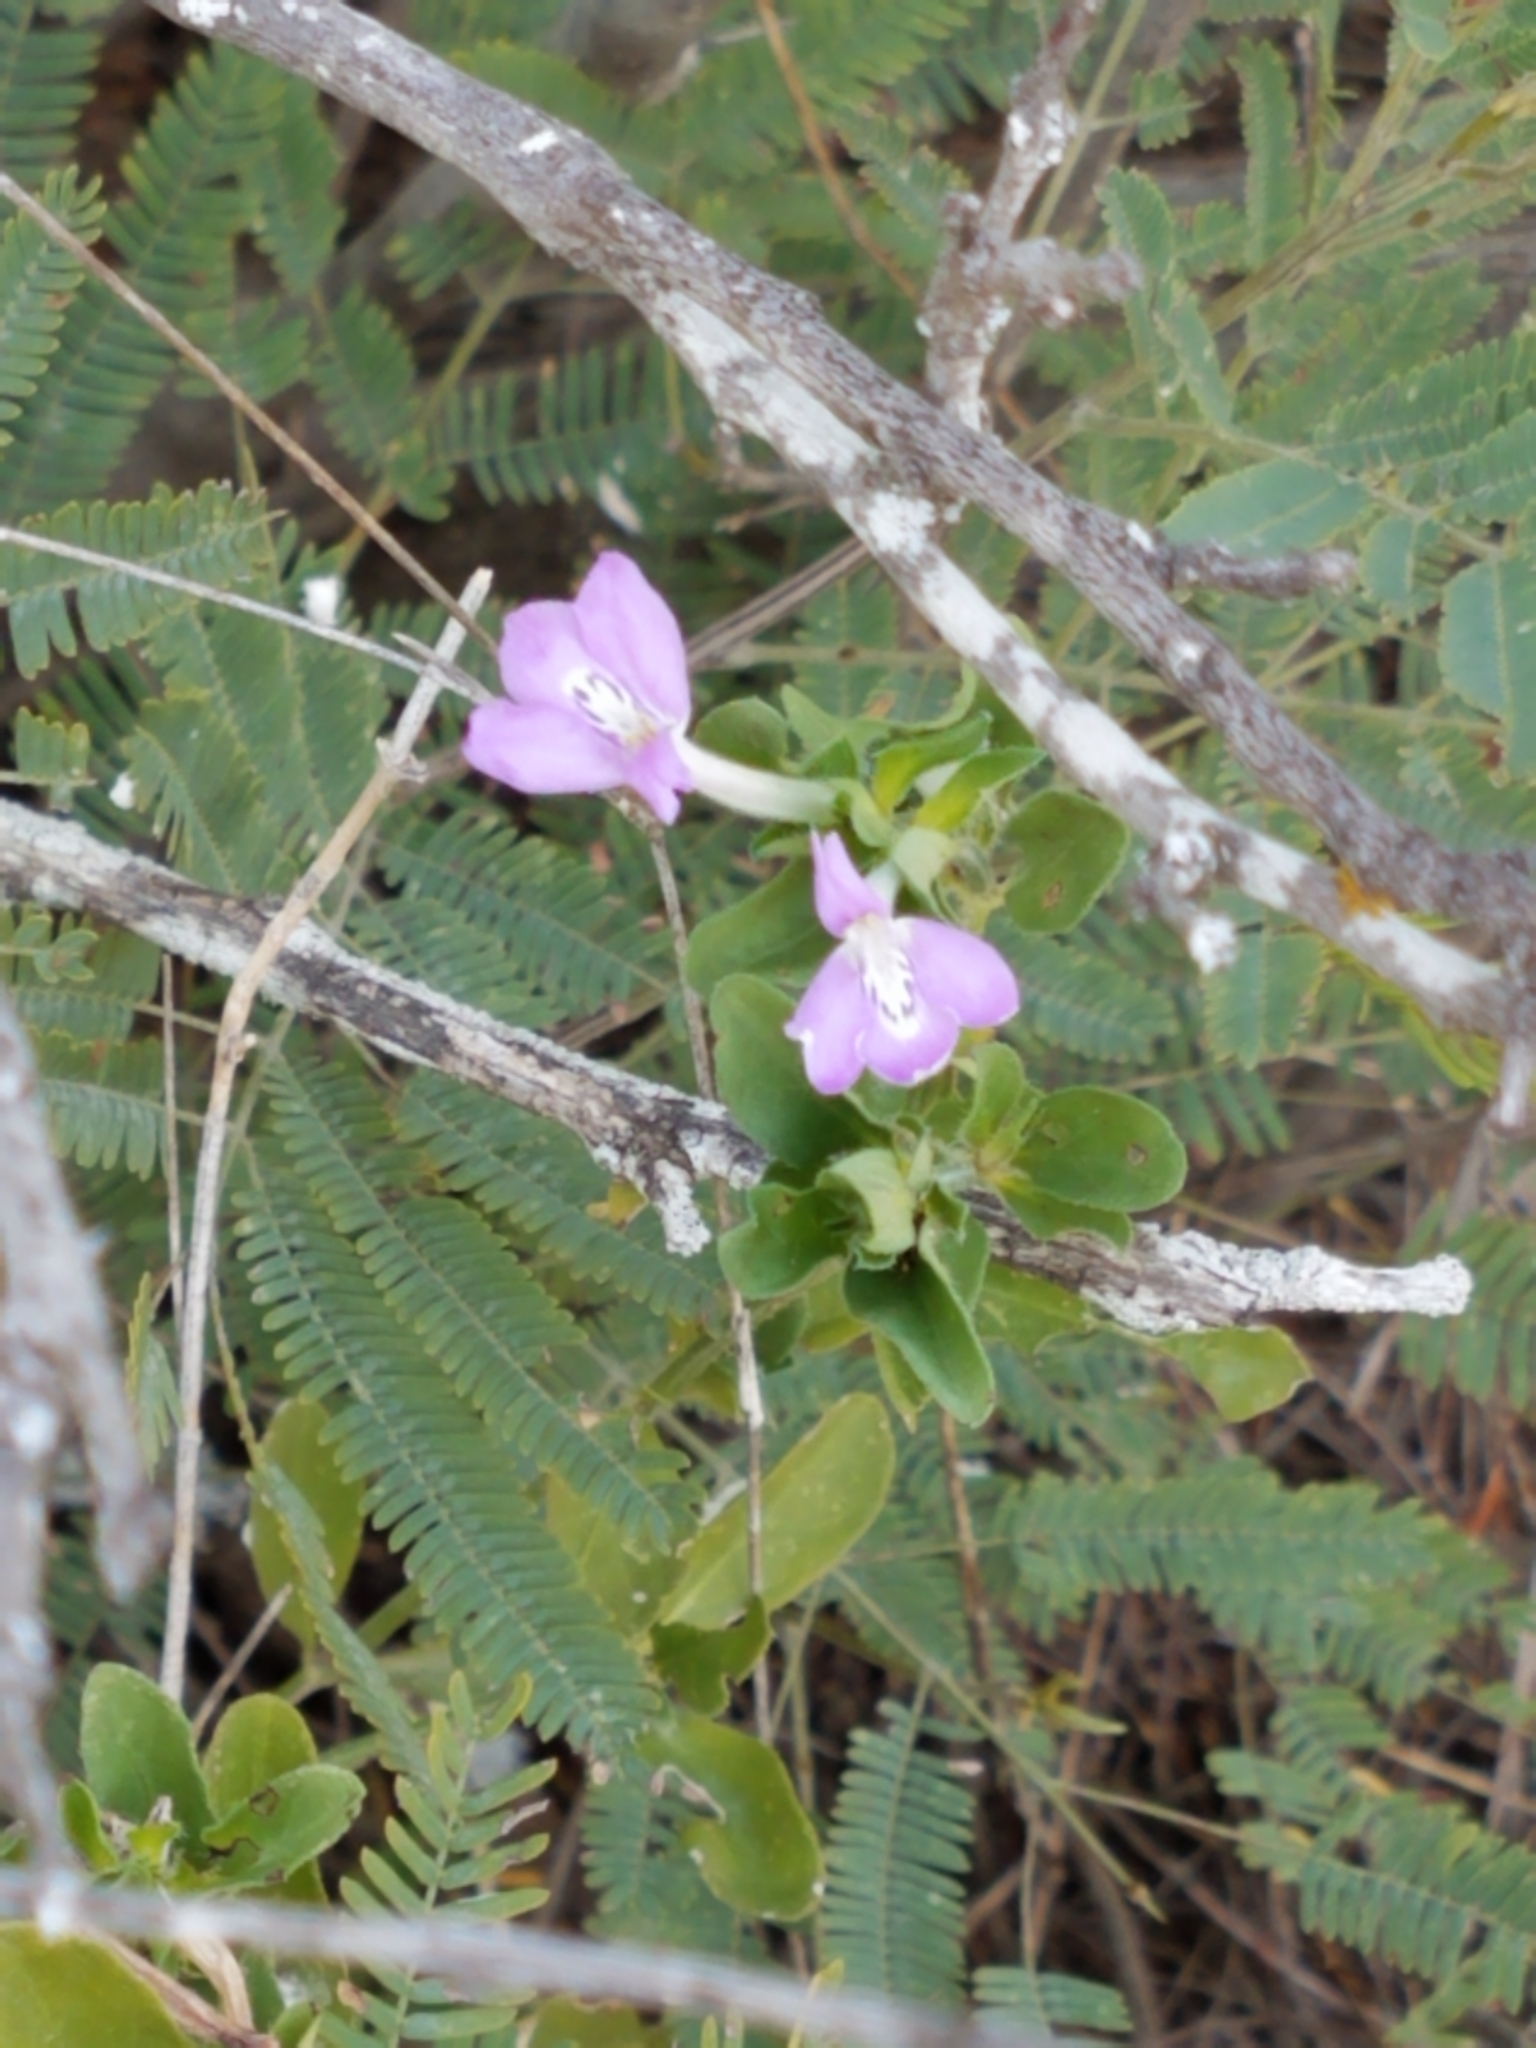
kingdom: Plantae
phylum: Tracheophyta
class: Magnoliopsida
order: Lamiales
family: Acanthaceae
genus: Justicia
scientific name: Justicia pilosella
